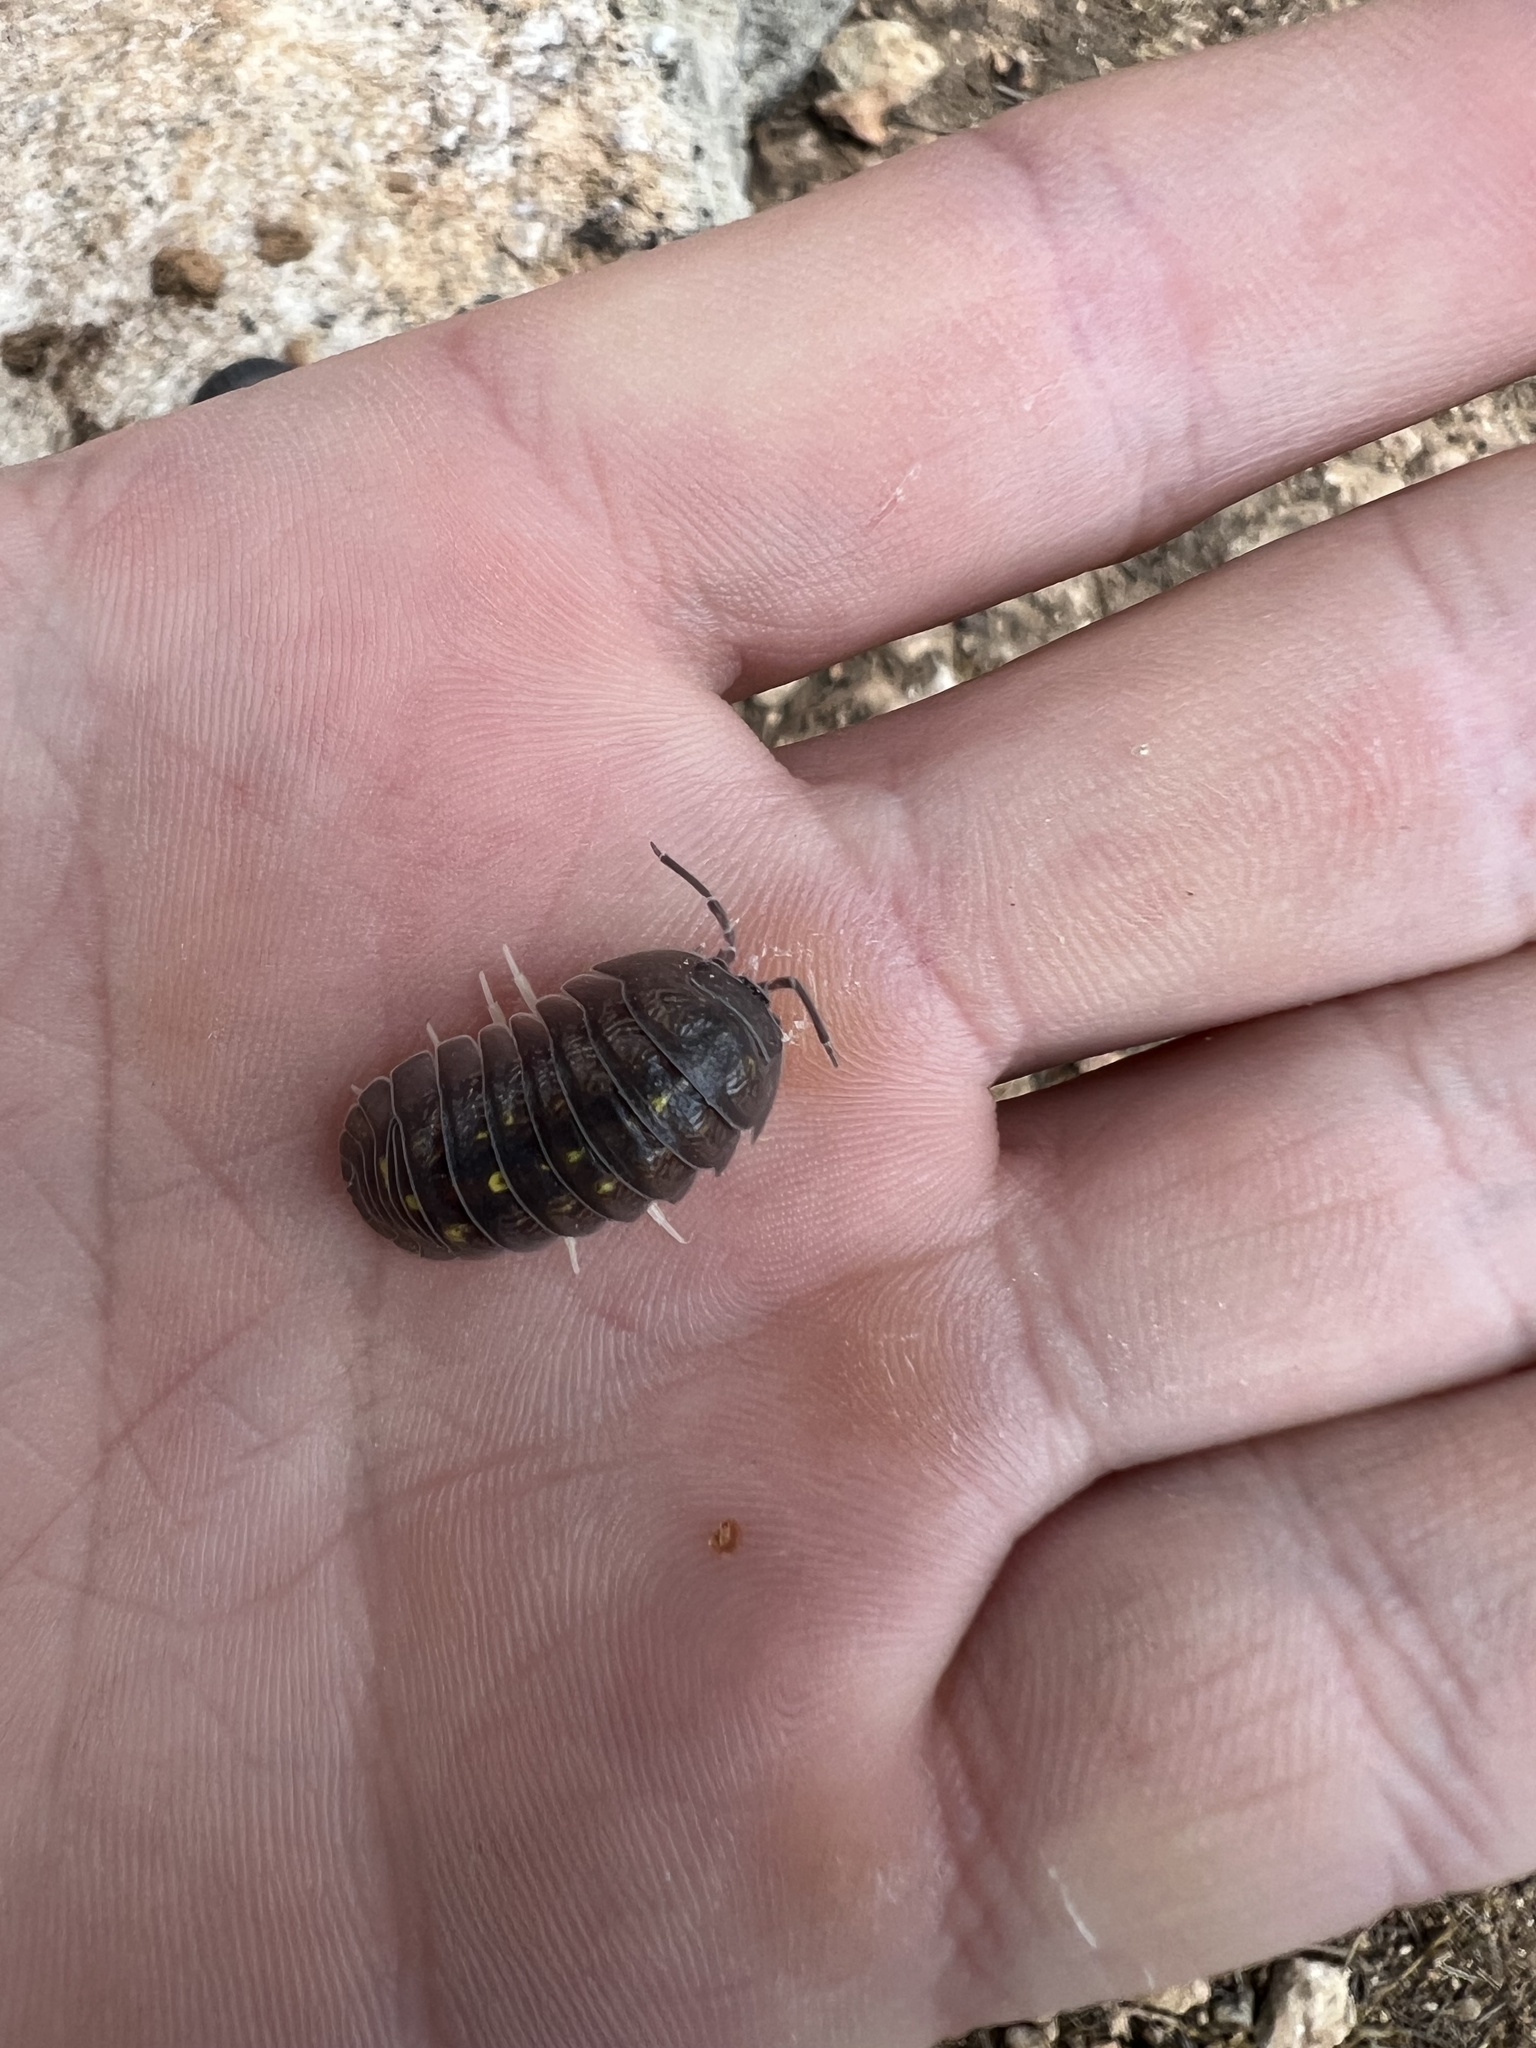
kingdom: Animalia
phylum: Arthropoda
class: Malacostraca
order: Isopoda
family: Armadillidiidae
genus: Armadillidium
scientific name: Armadillidium granulatum
